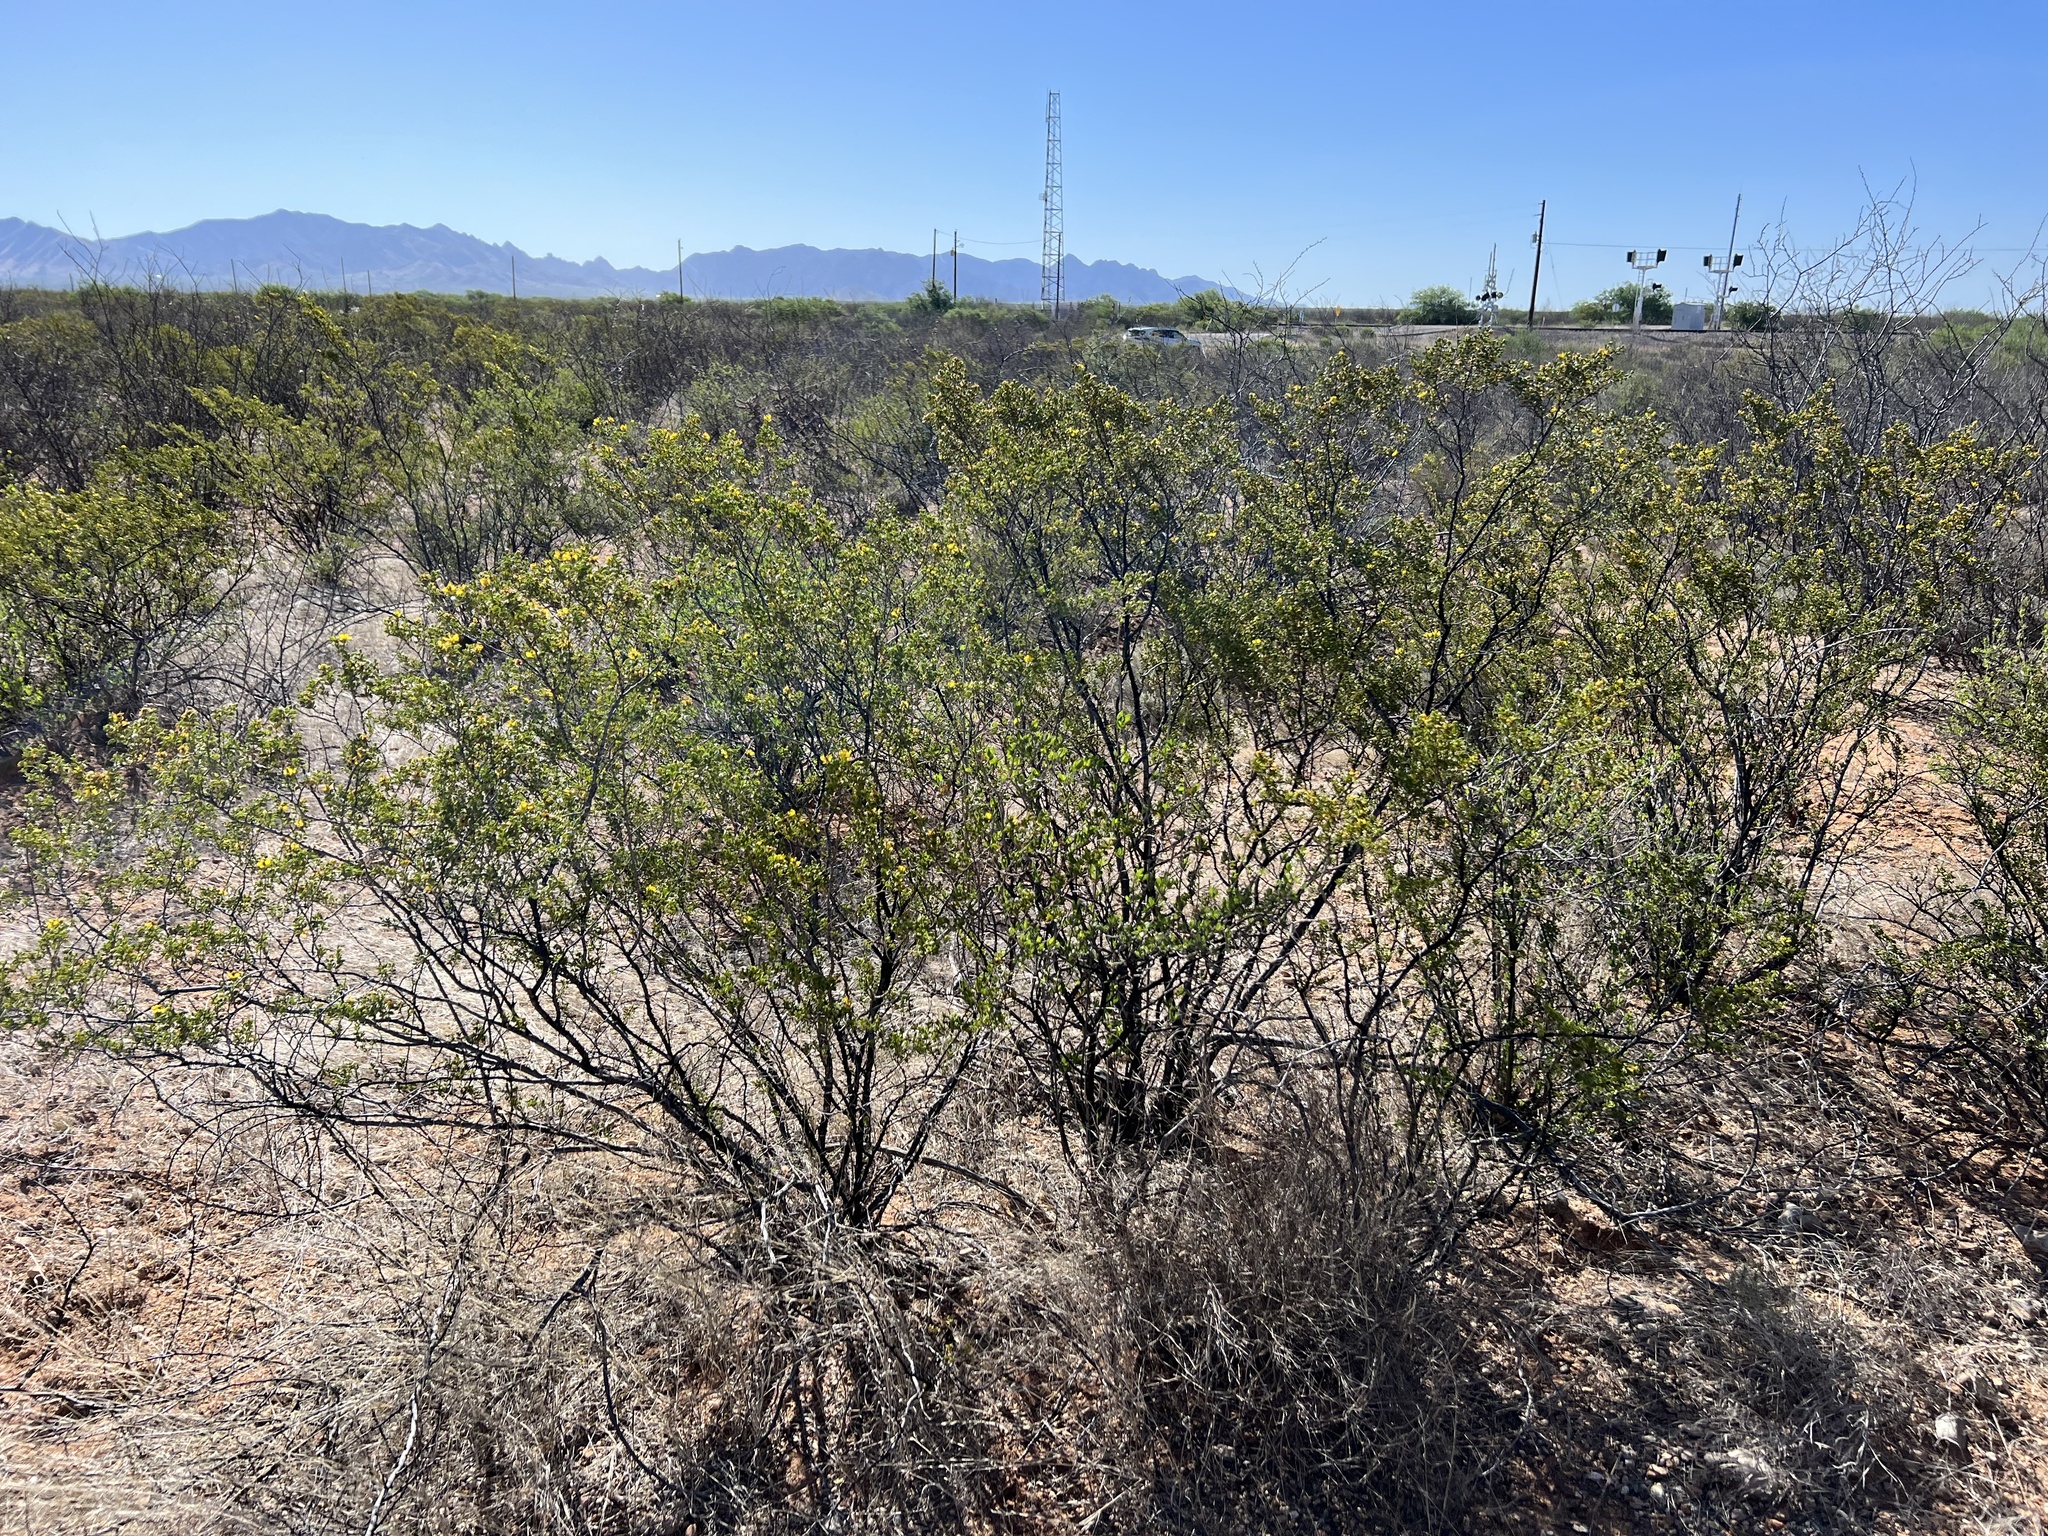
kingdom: Plantae
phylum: Tracheophyta
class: Magnoliopsida
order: Zygophyllales
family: Zygophyllaceae
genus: Larrea
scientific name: Larrea tridentata
